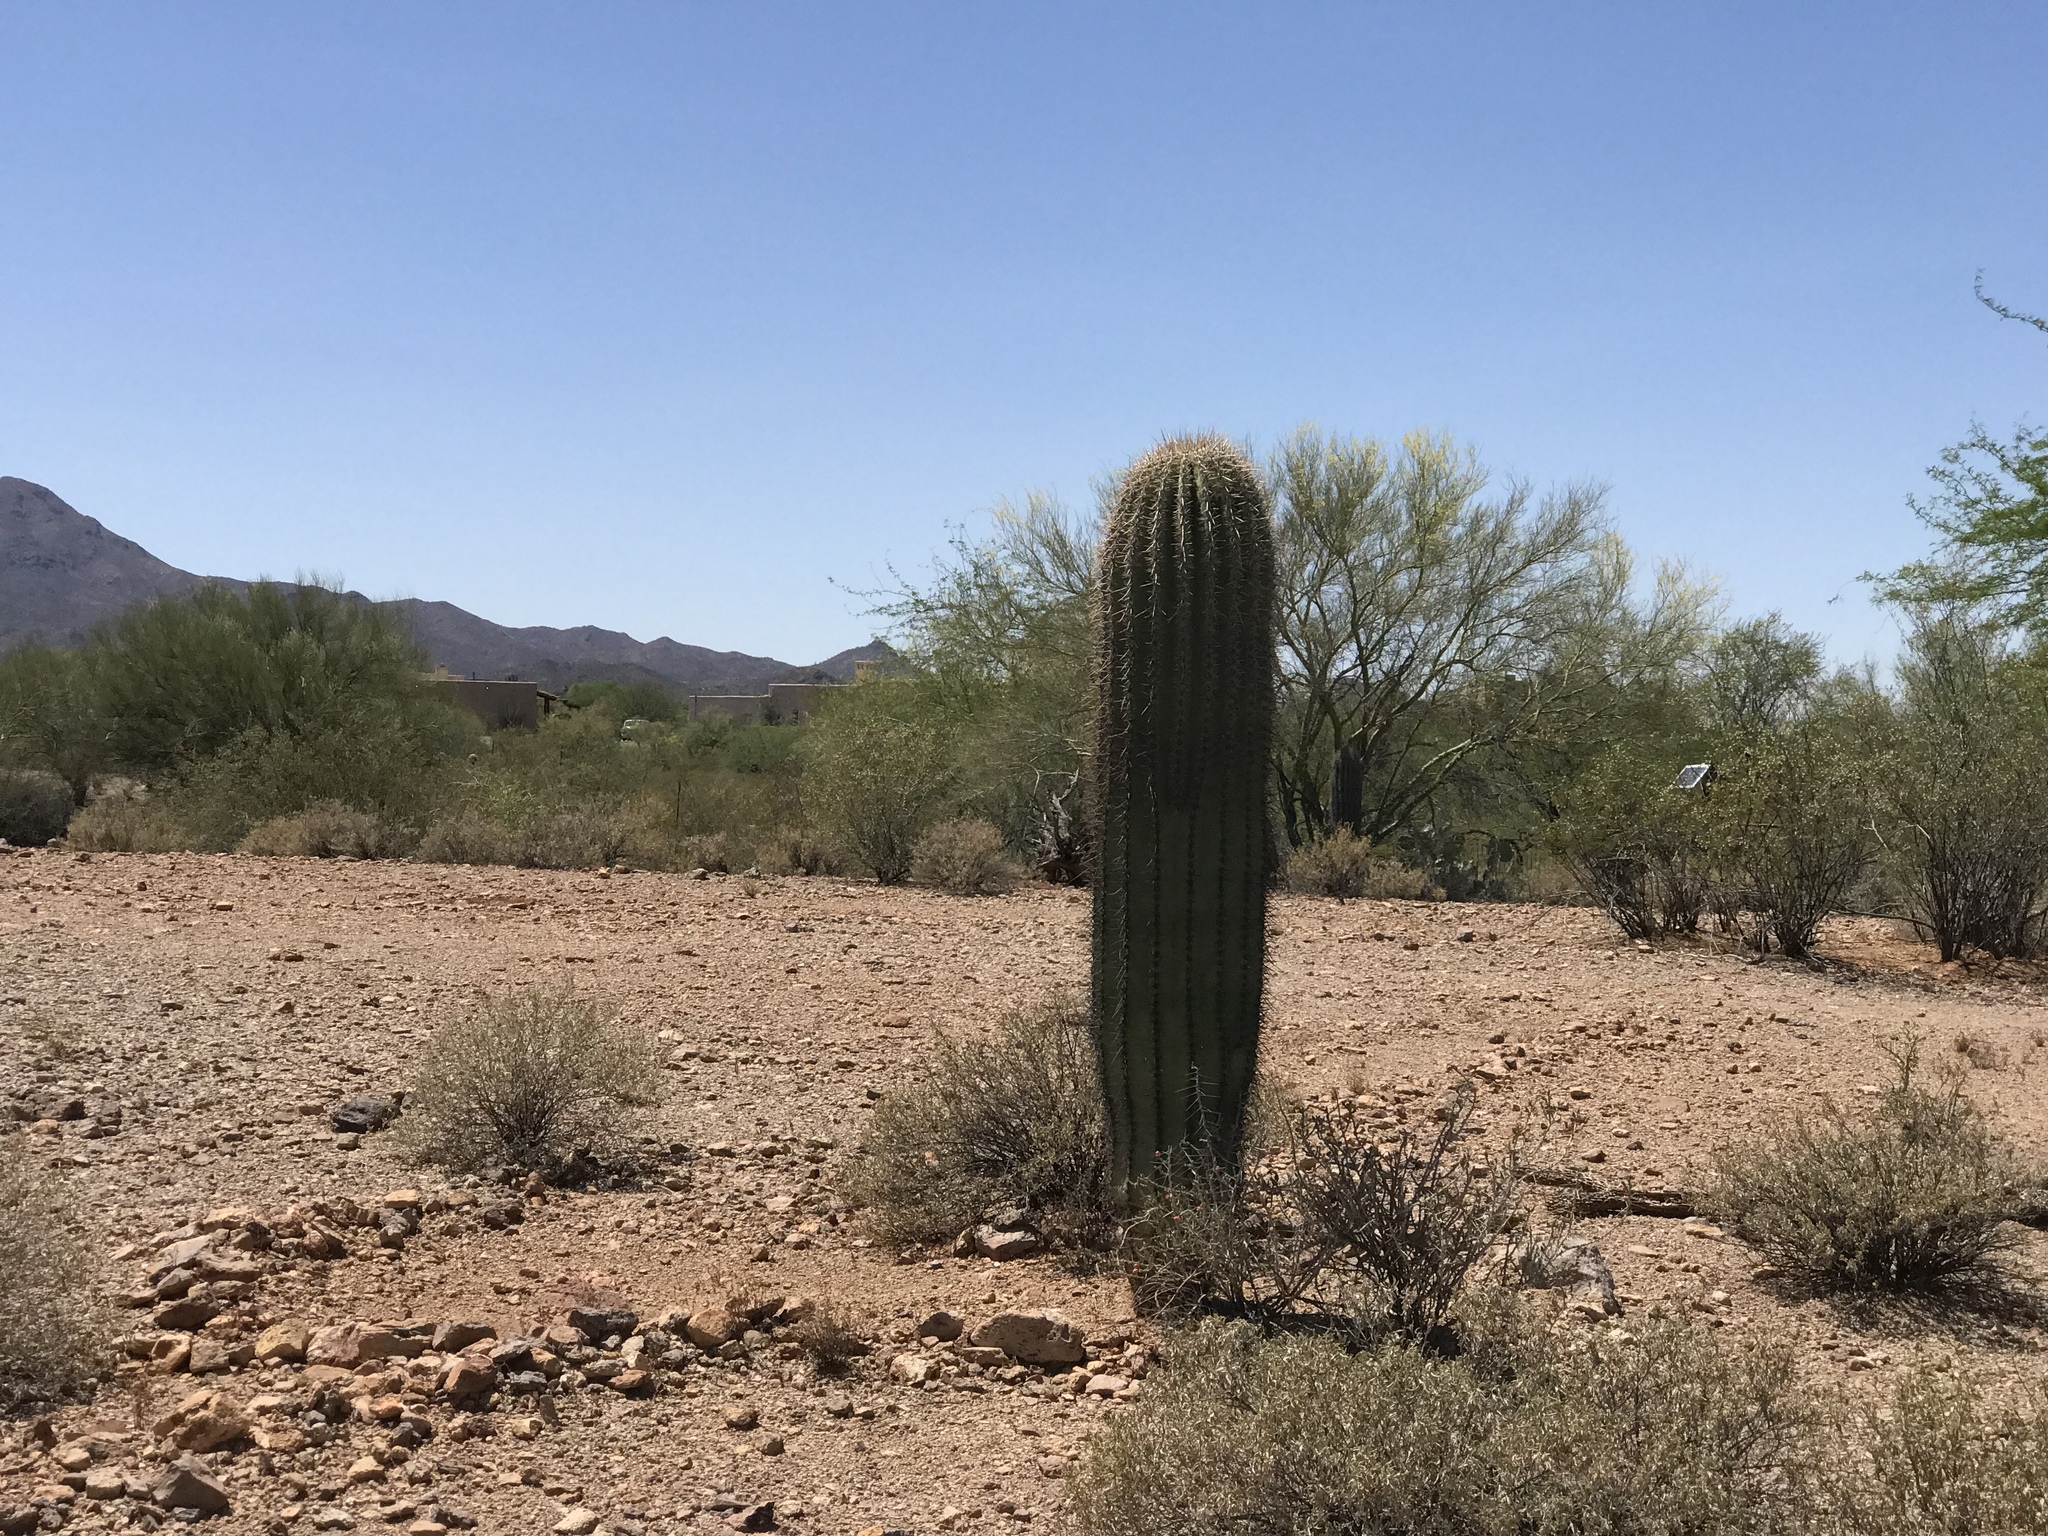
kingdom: Plantae
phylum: Tracheophyta
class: Magnoliopsida
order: Caryophyllales
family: Cactaceae
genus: Carnegiea
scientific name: Carnegiea gigantea
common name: Saguaro
